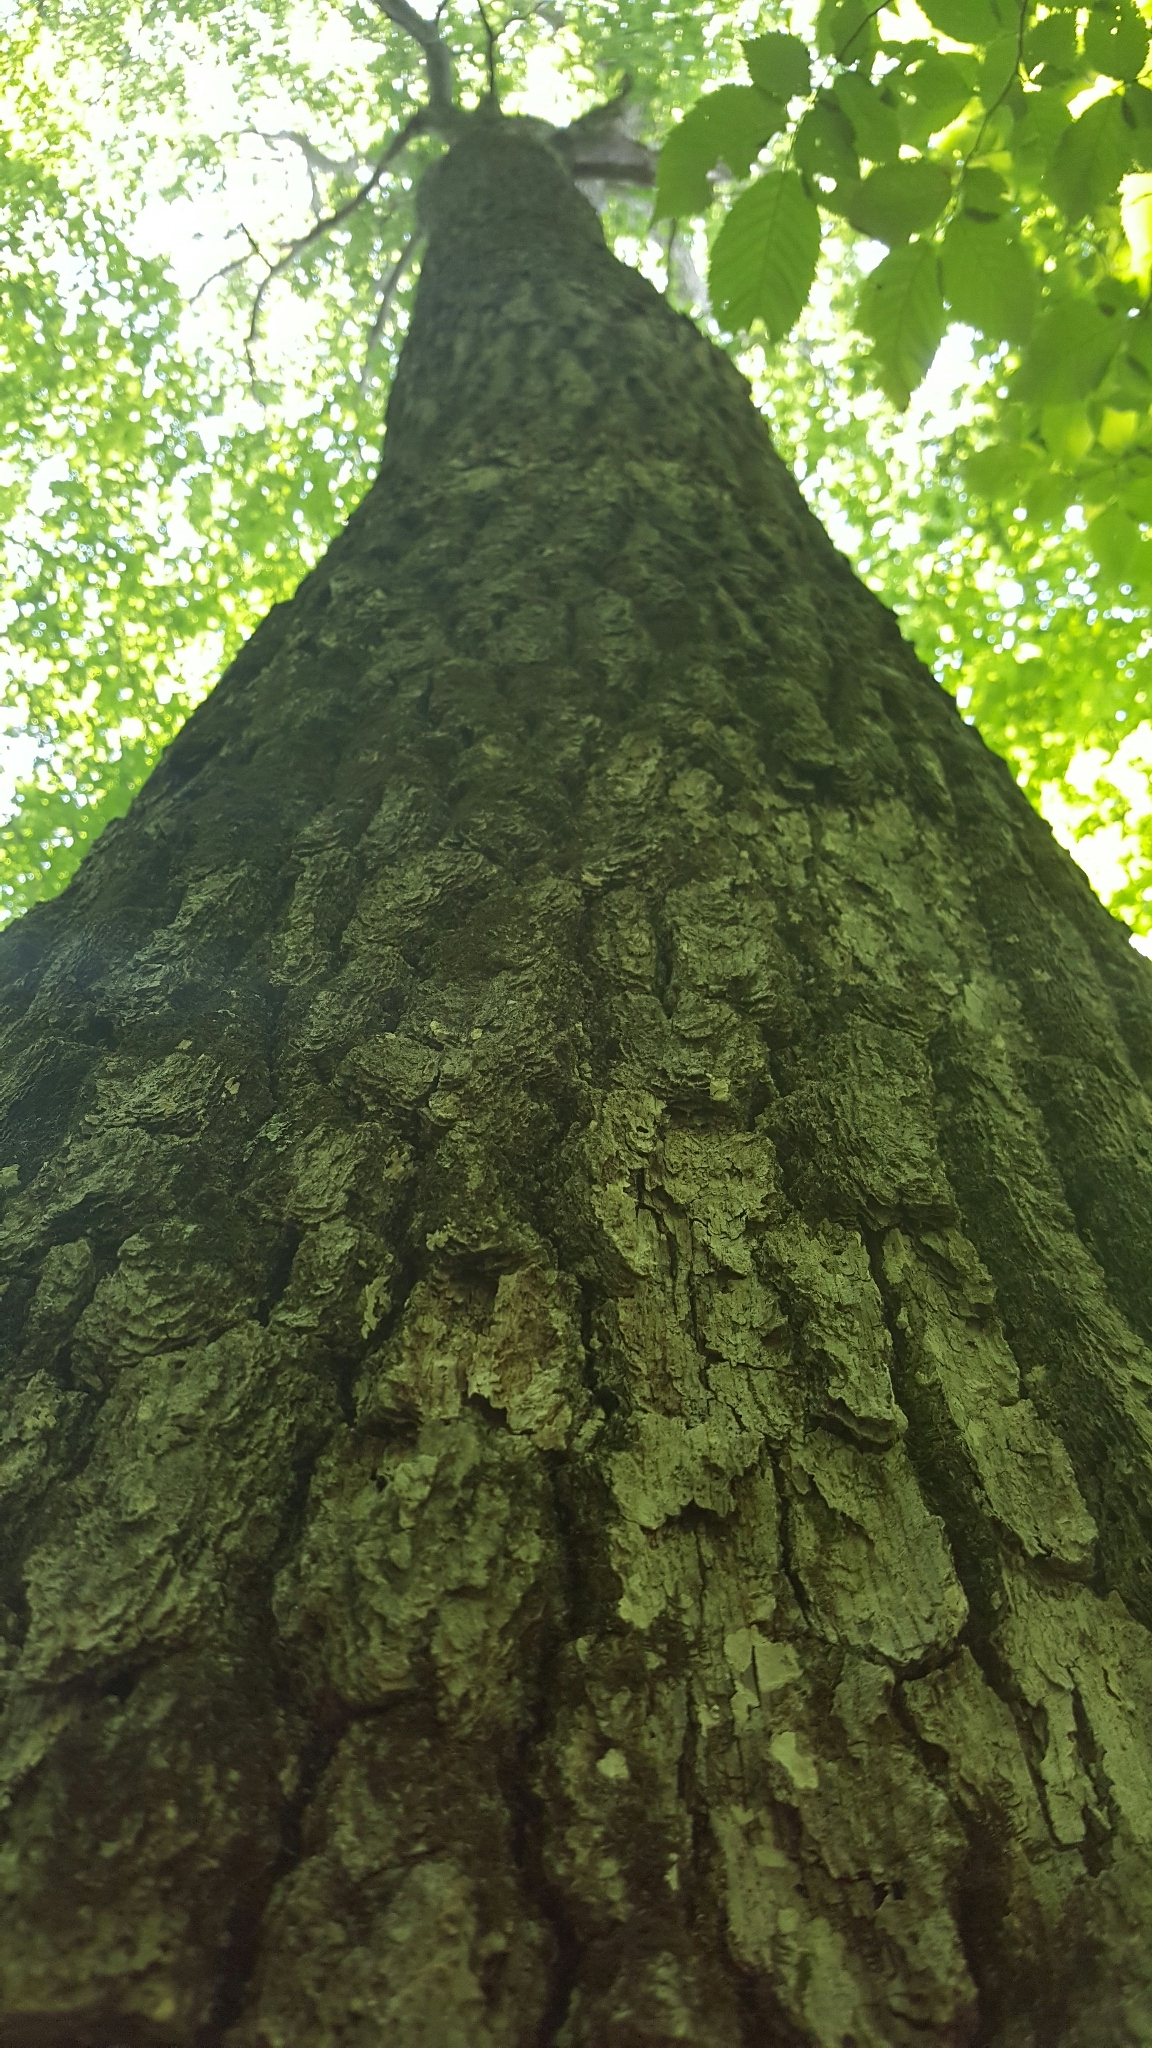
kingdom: Plantae
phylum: Tracheophyta
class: Magnoliopsida
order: Fagales
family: Fagaceae
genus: Quercus
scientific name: Quercus rubra
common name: Red oak
